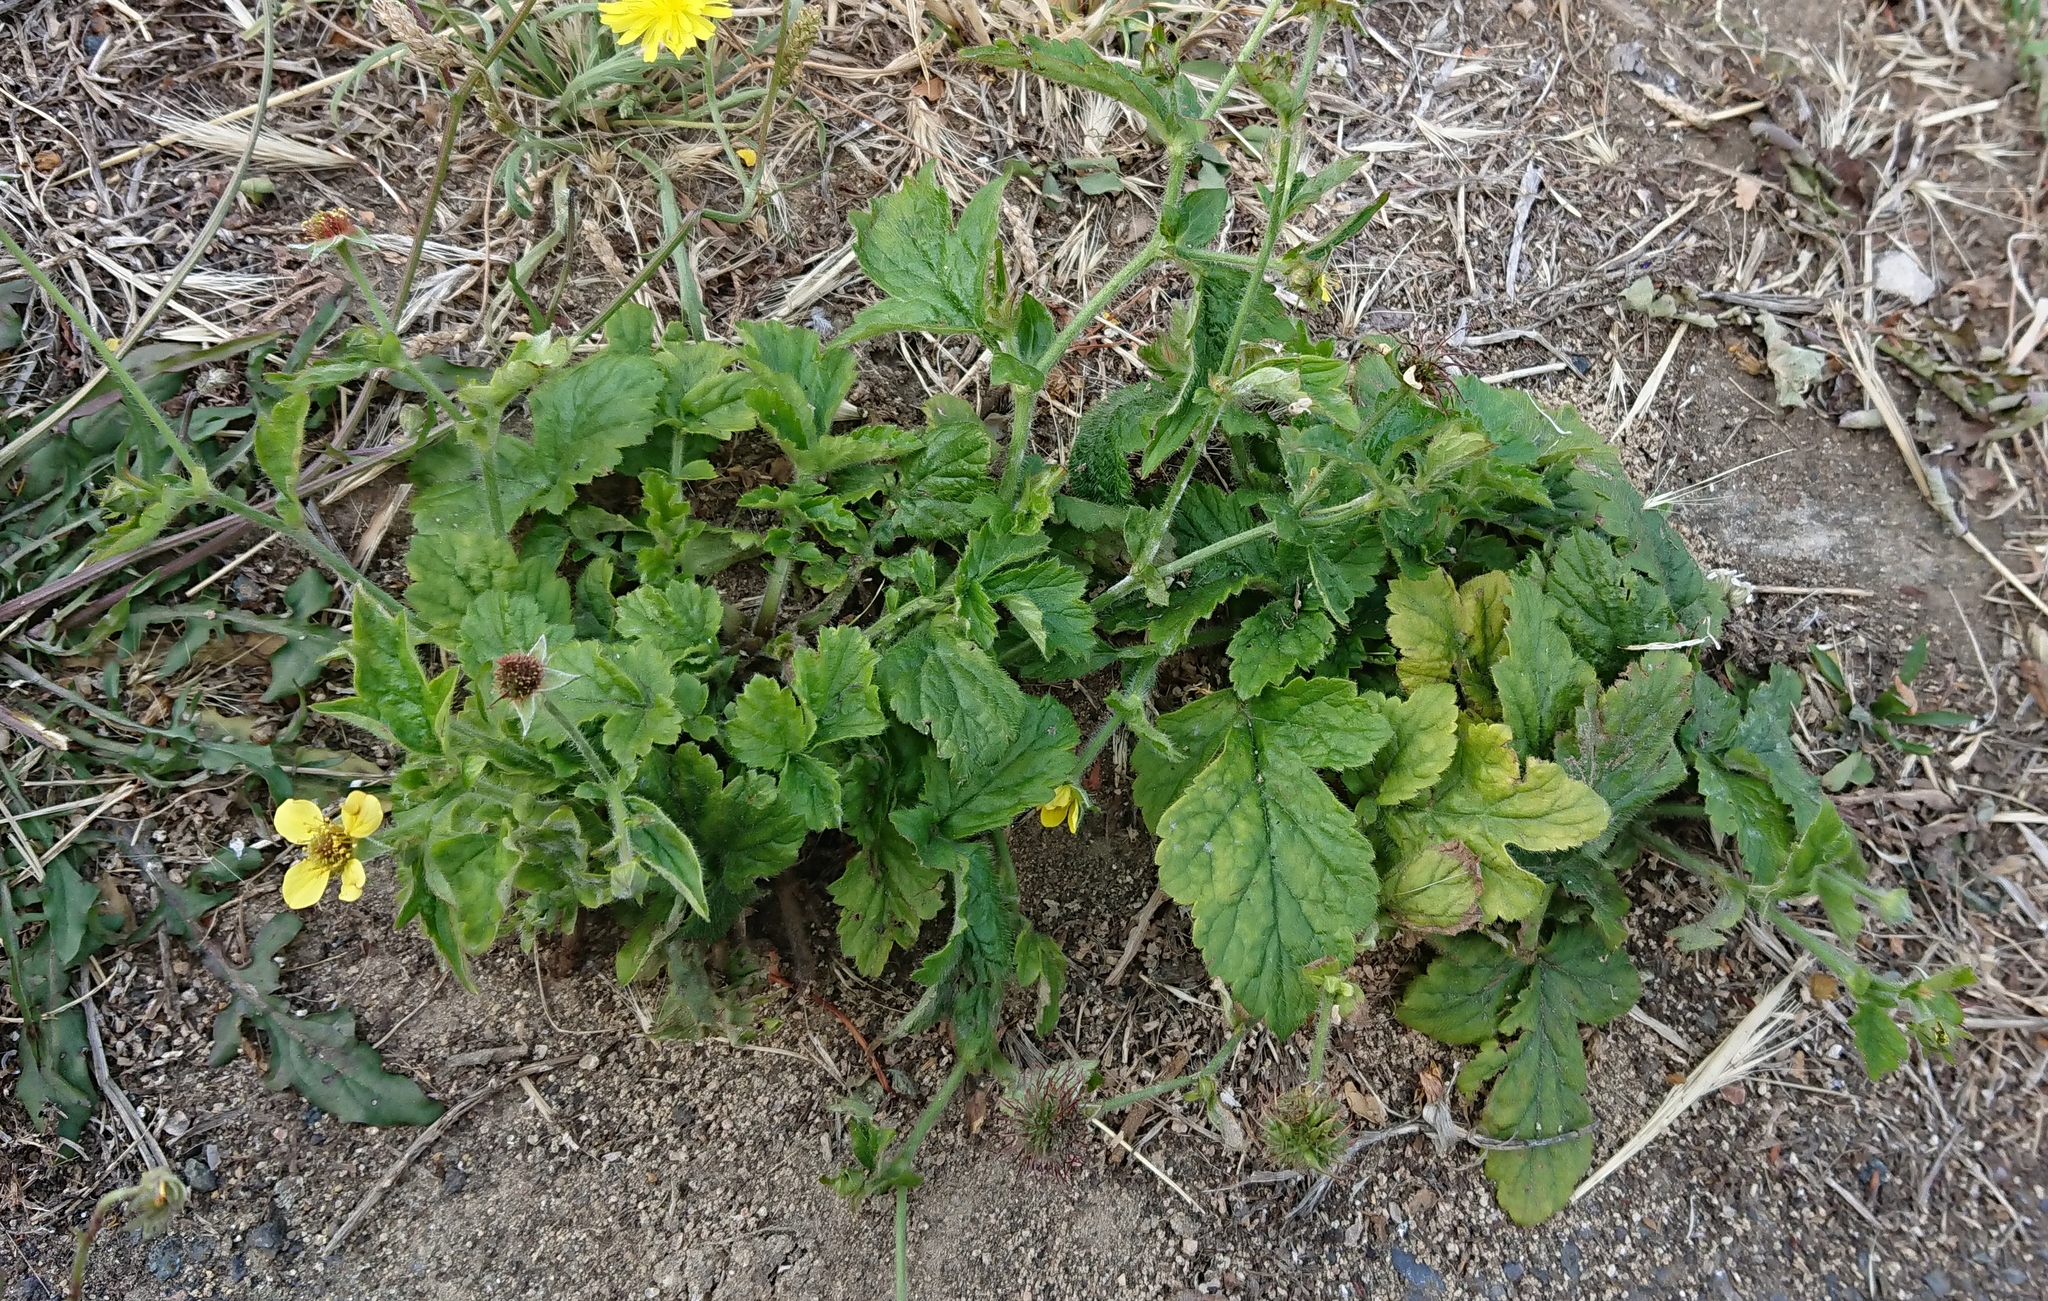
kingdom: Plantae
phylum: Tracheophyta
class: Magnoliopsida
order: Rosales
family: Rosaceae
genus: Geum
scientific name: Geum urbanum
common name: Wood avens
